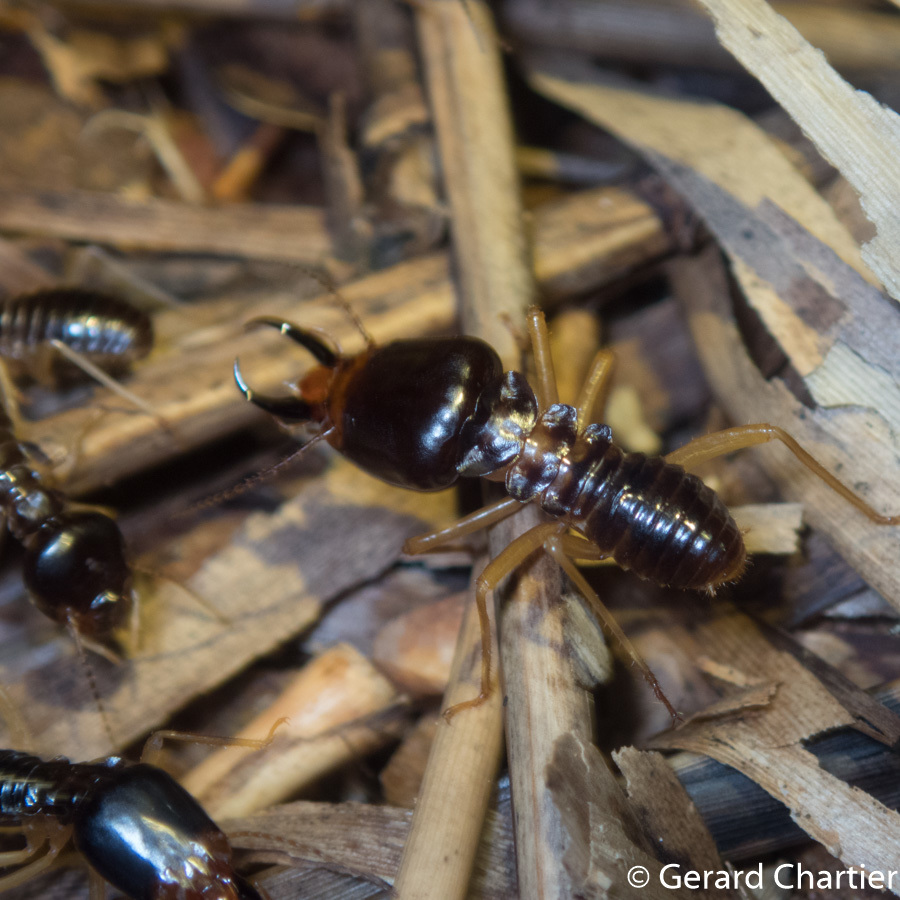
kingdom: Animalia
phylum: Arthropoda
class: Insecta
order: Blattodea
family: Termitidae
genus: Macrotermes
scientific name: Macrotermes carbonarius
